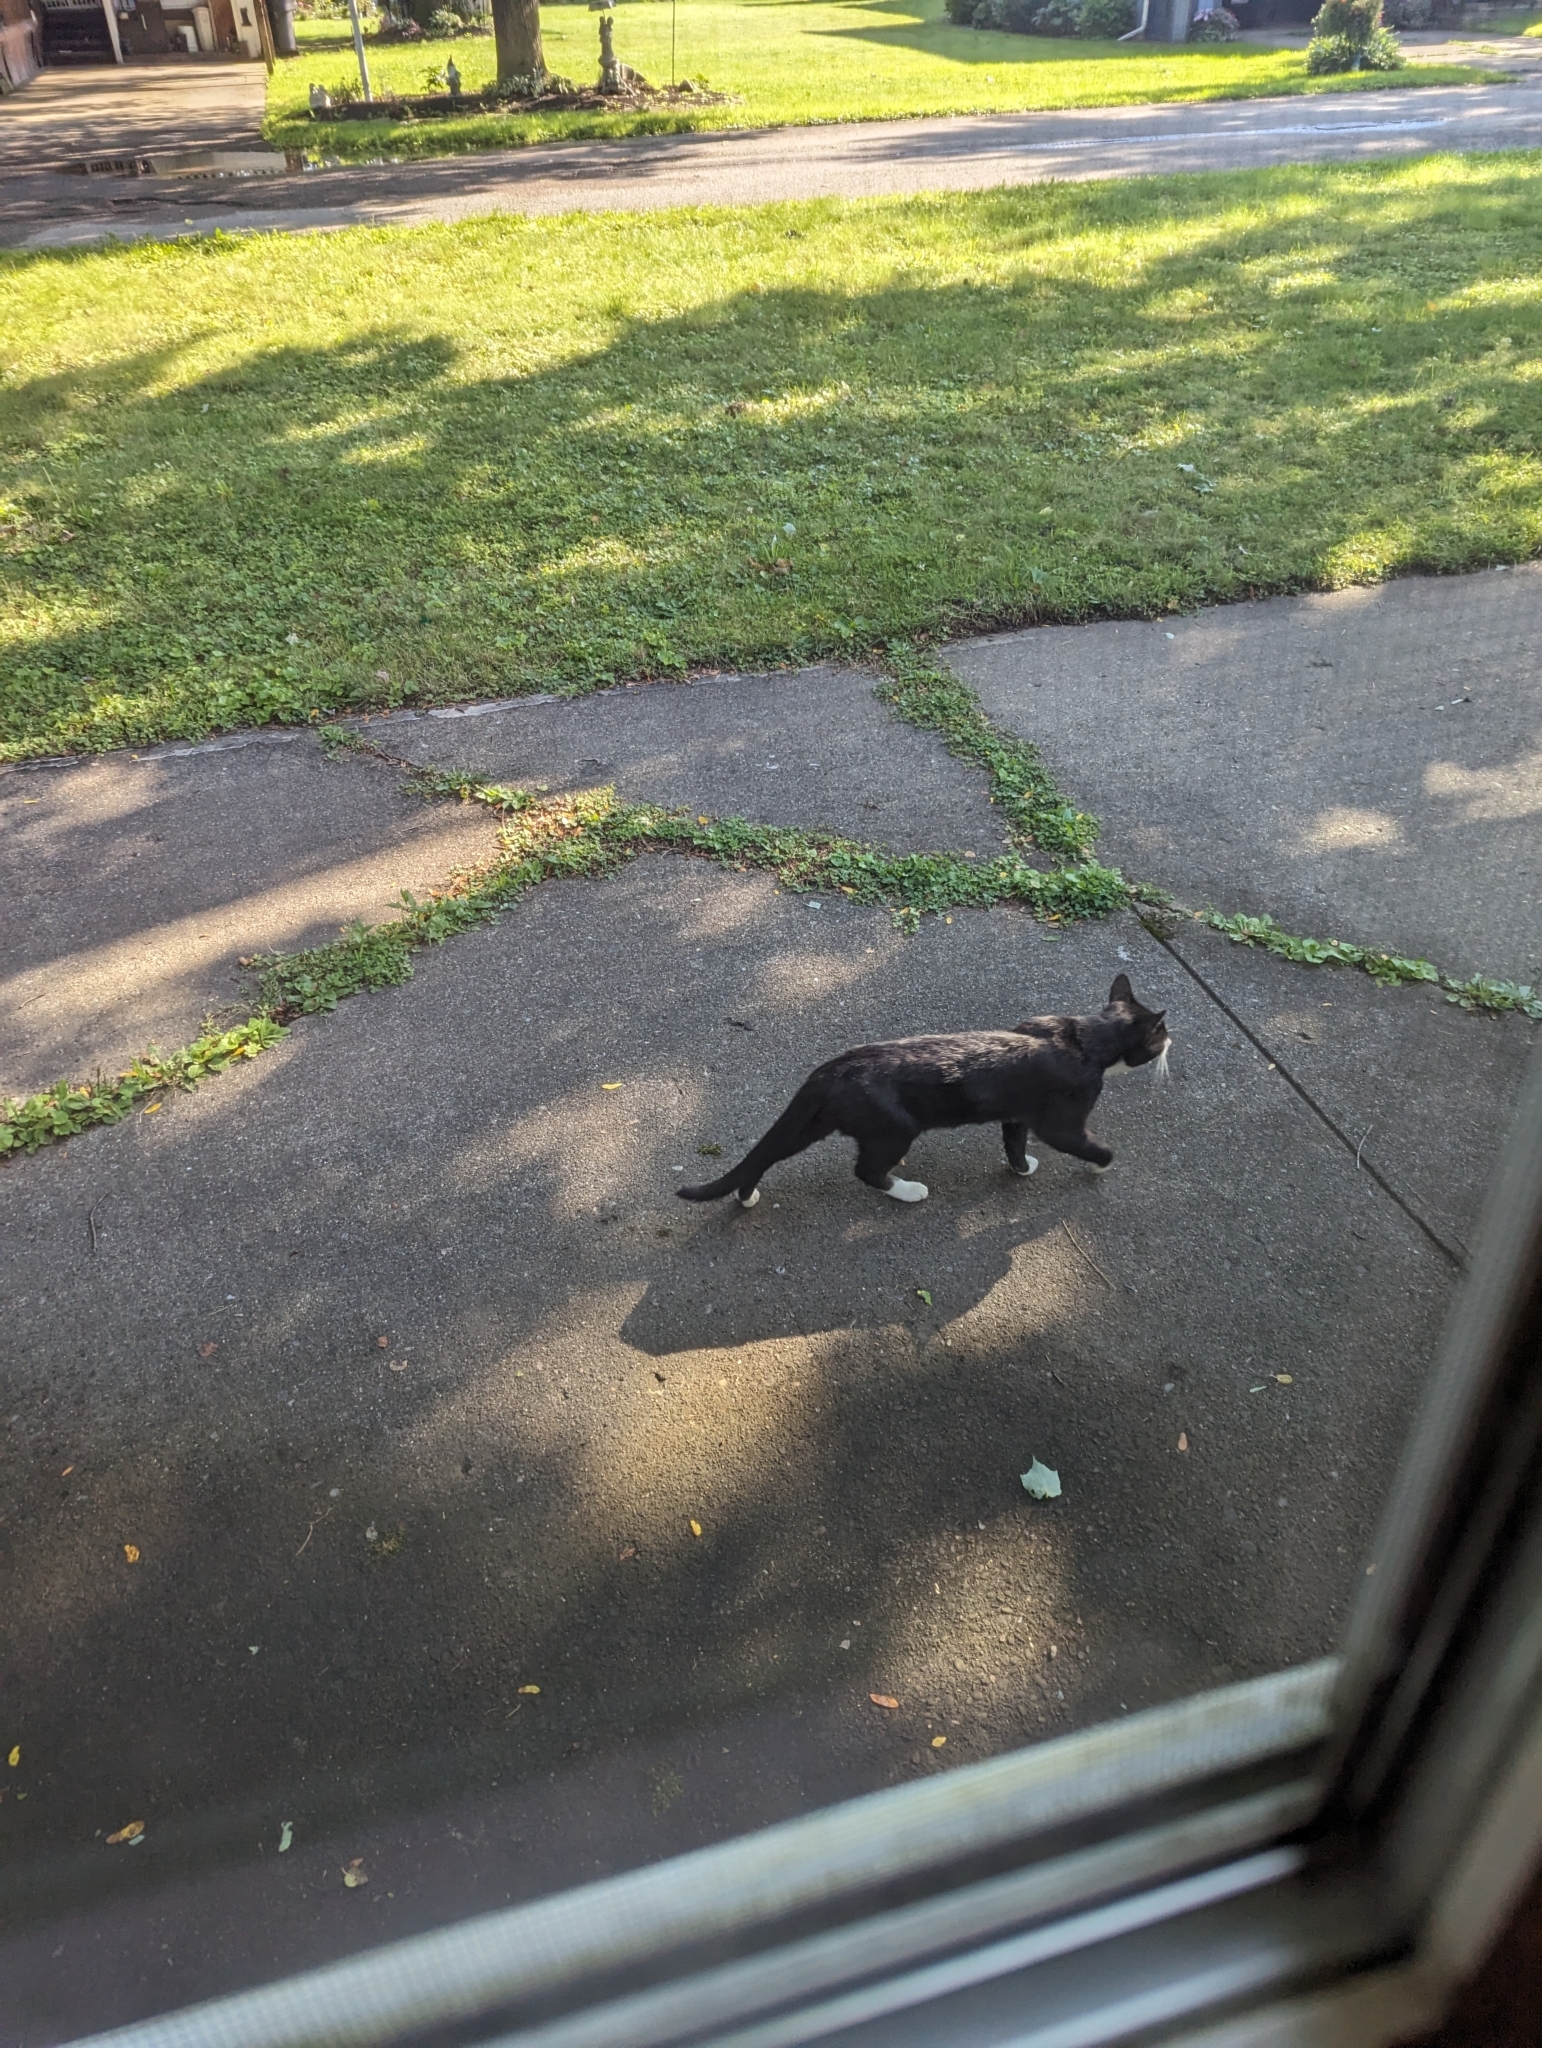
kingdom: Animalia
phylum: Chordata
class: Mammalia
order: Carnivora
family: Felidae
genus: Felis
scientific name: Felis catus
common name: Domestic cat
